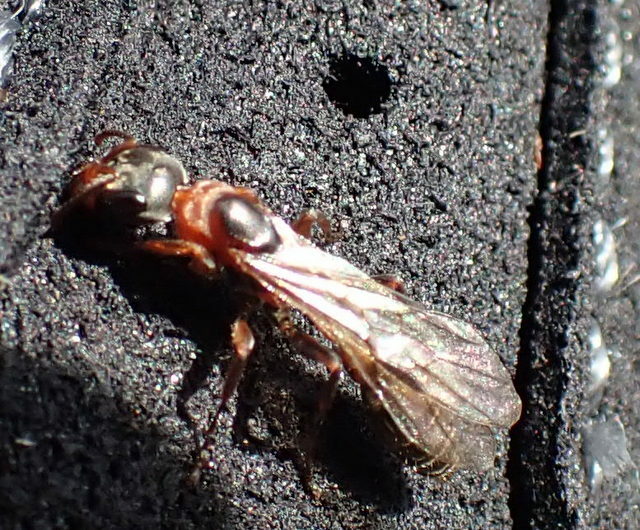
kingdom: Animalia
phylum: Arthropoda
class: Insecta
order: Hymenoptera
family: Formicidae
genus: Pseudomyrmex
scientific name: Pseudomyrmex gracilis
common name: Graceful twig ant
